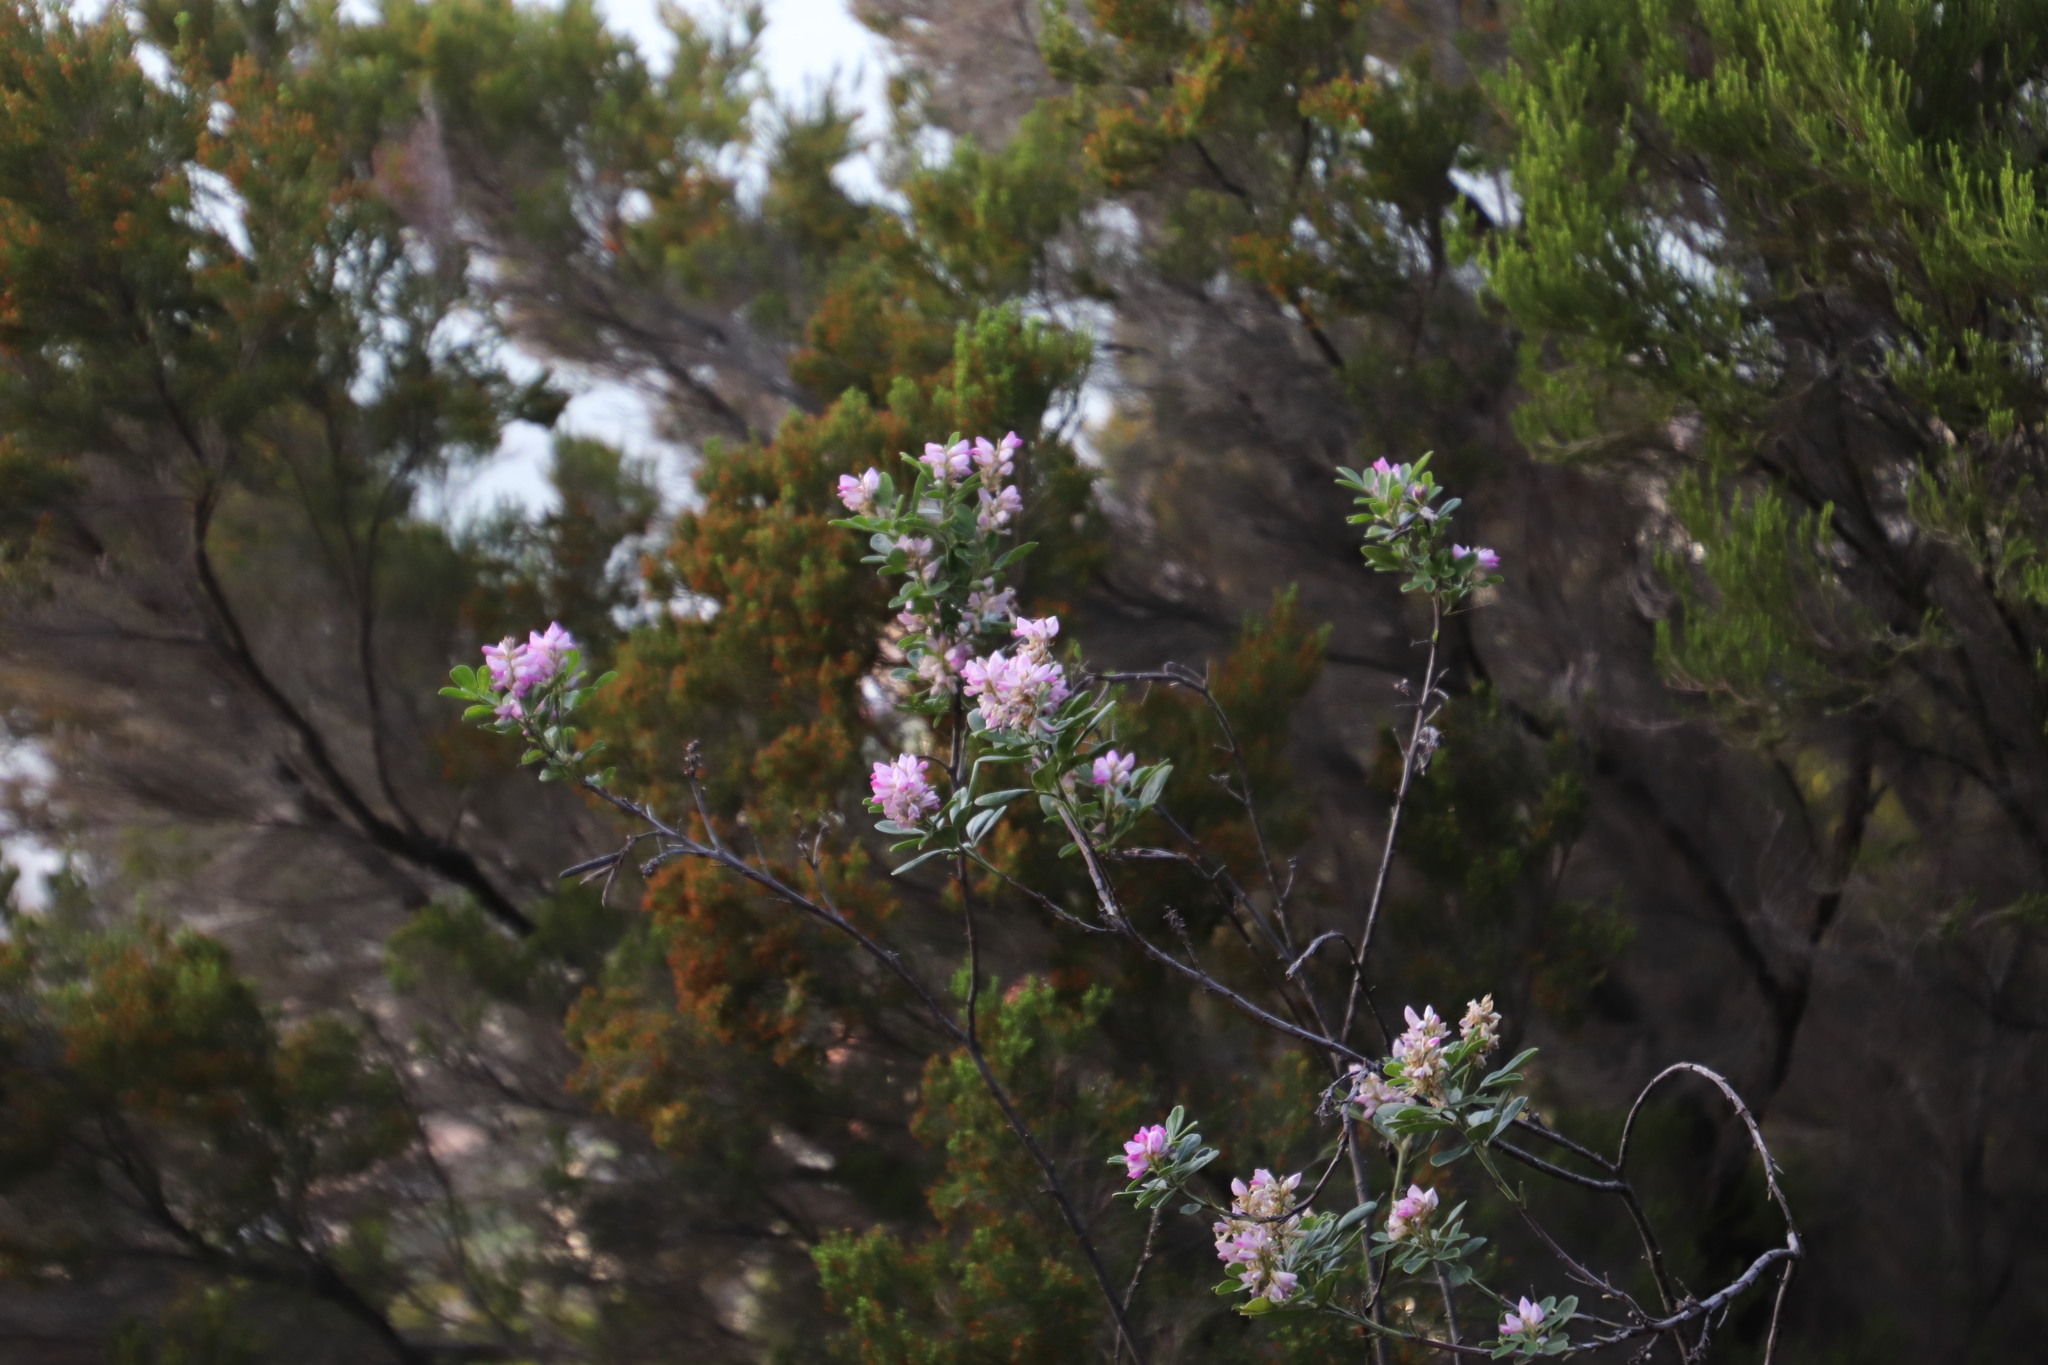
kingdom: Plantae
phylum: Tracheophyta
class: Magnoliopsida
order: Fabales
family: Fabaceae
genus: Indigofera
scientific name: Indigofera cytisoides
